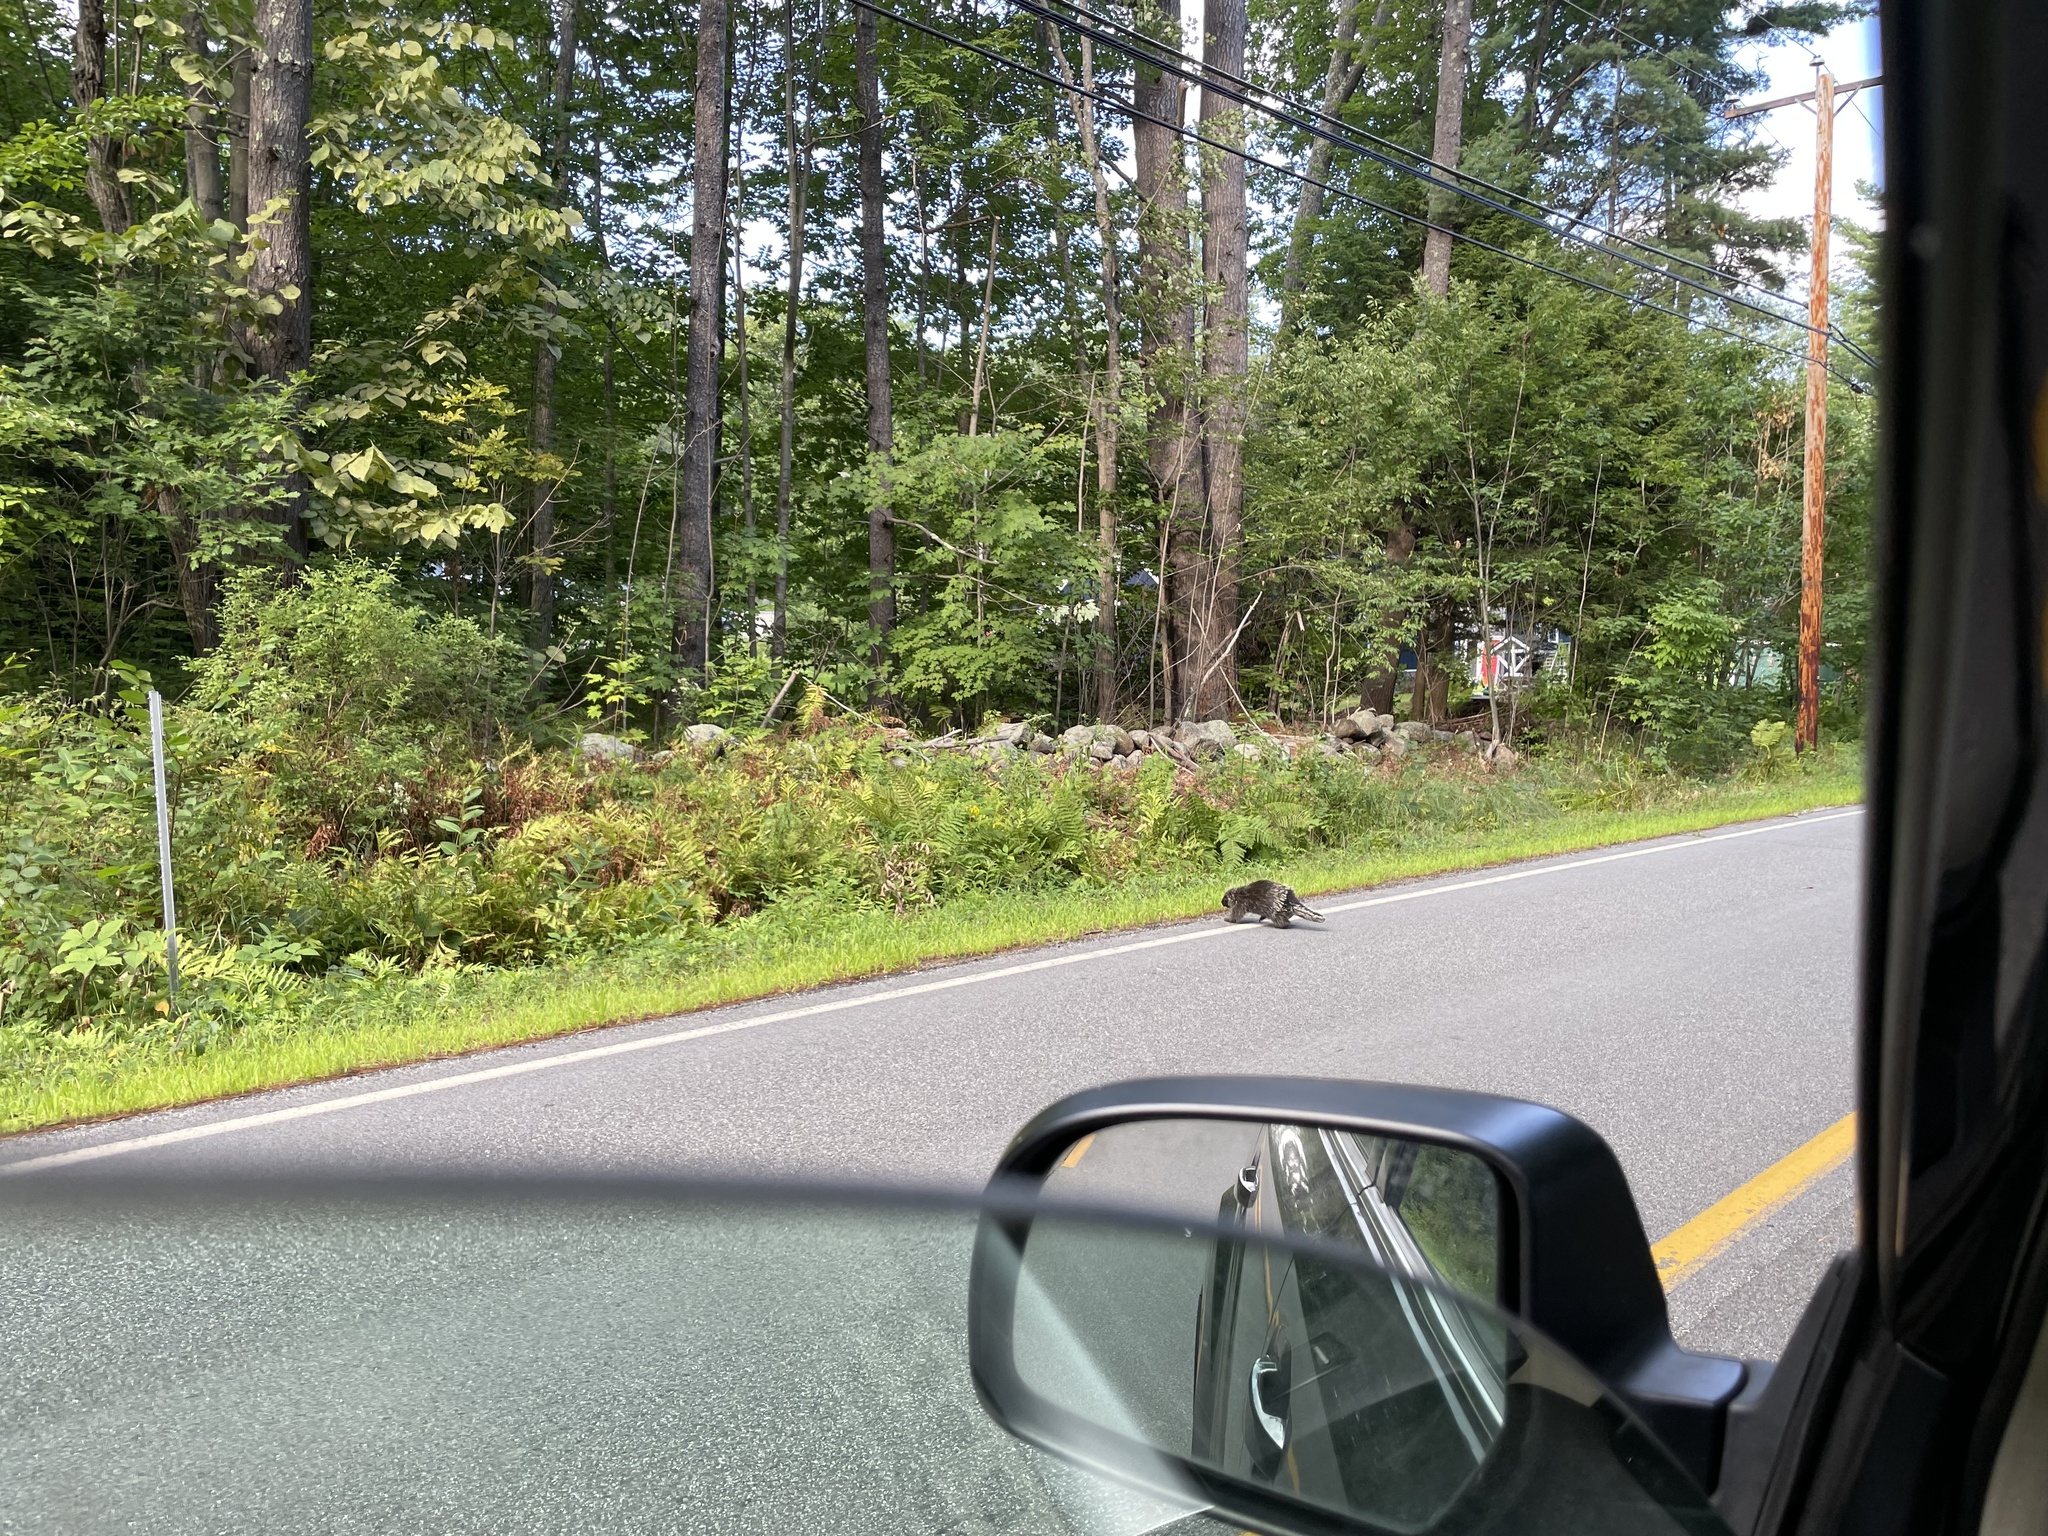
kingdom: Animalia
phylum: Chordata
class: Mammalia
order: Rodentia
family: Erethizontidae
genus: Erethizon
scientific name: Erethizon dorsatus
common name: North american porcupine
